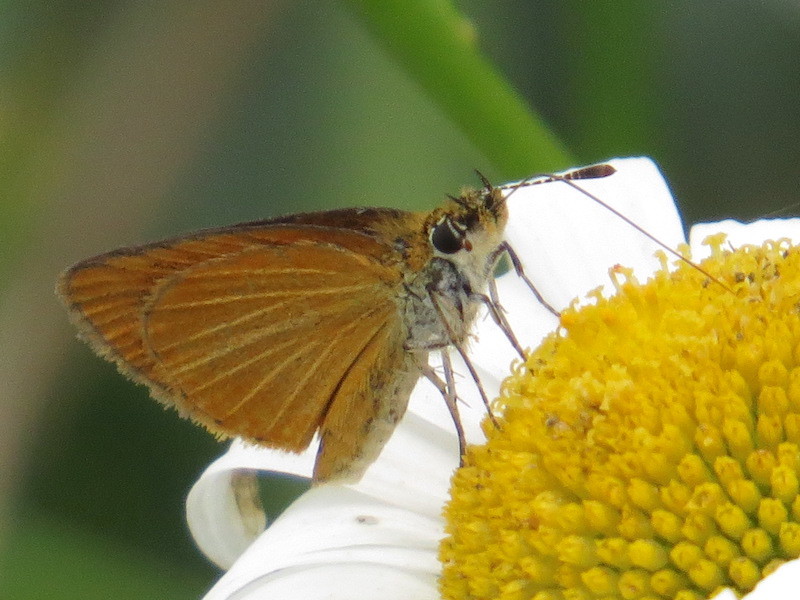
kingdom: Animalia
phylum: Arthropoda
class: Insecta
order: Lepidoptera
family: Hesperiidae
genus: Ancyloxypha
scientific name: Ancyloxypha numitor
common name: Least skipper
